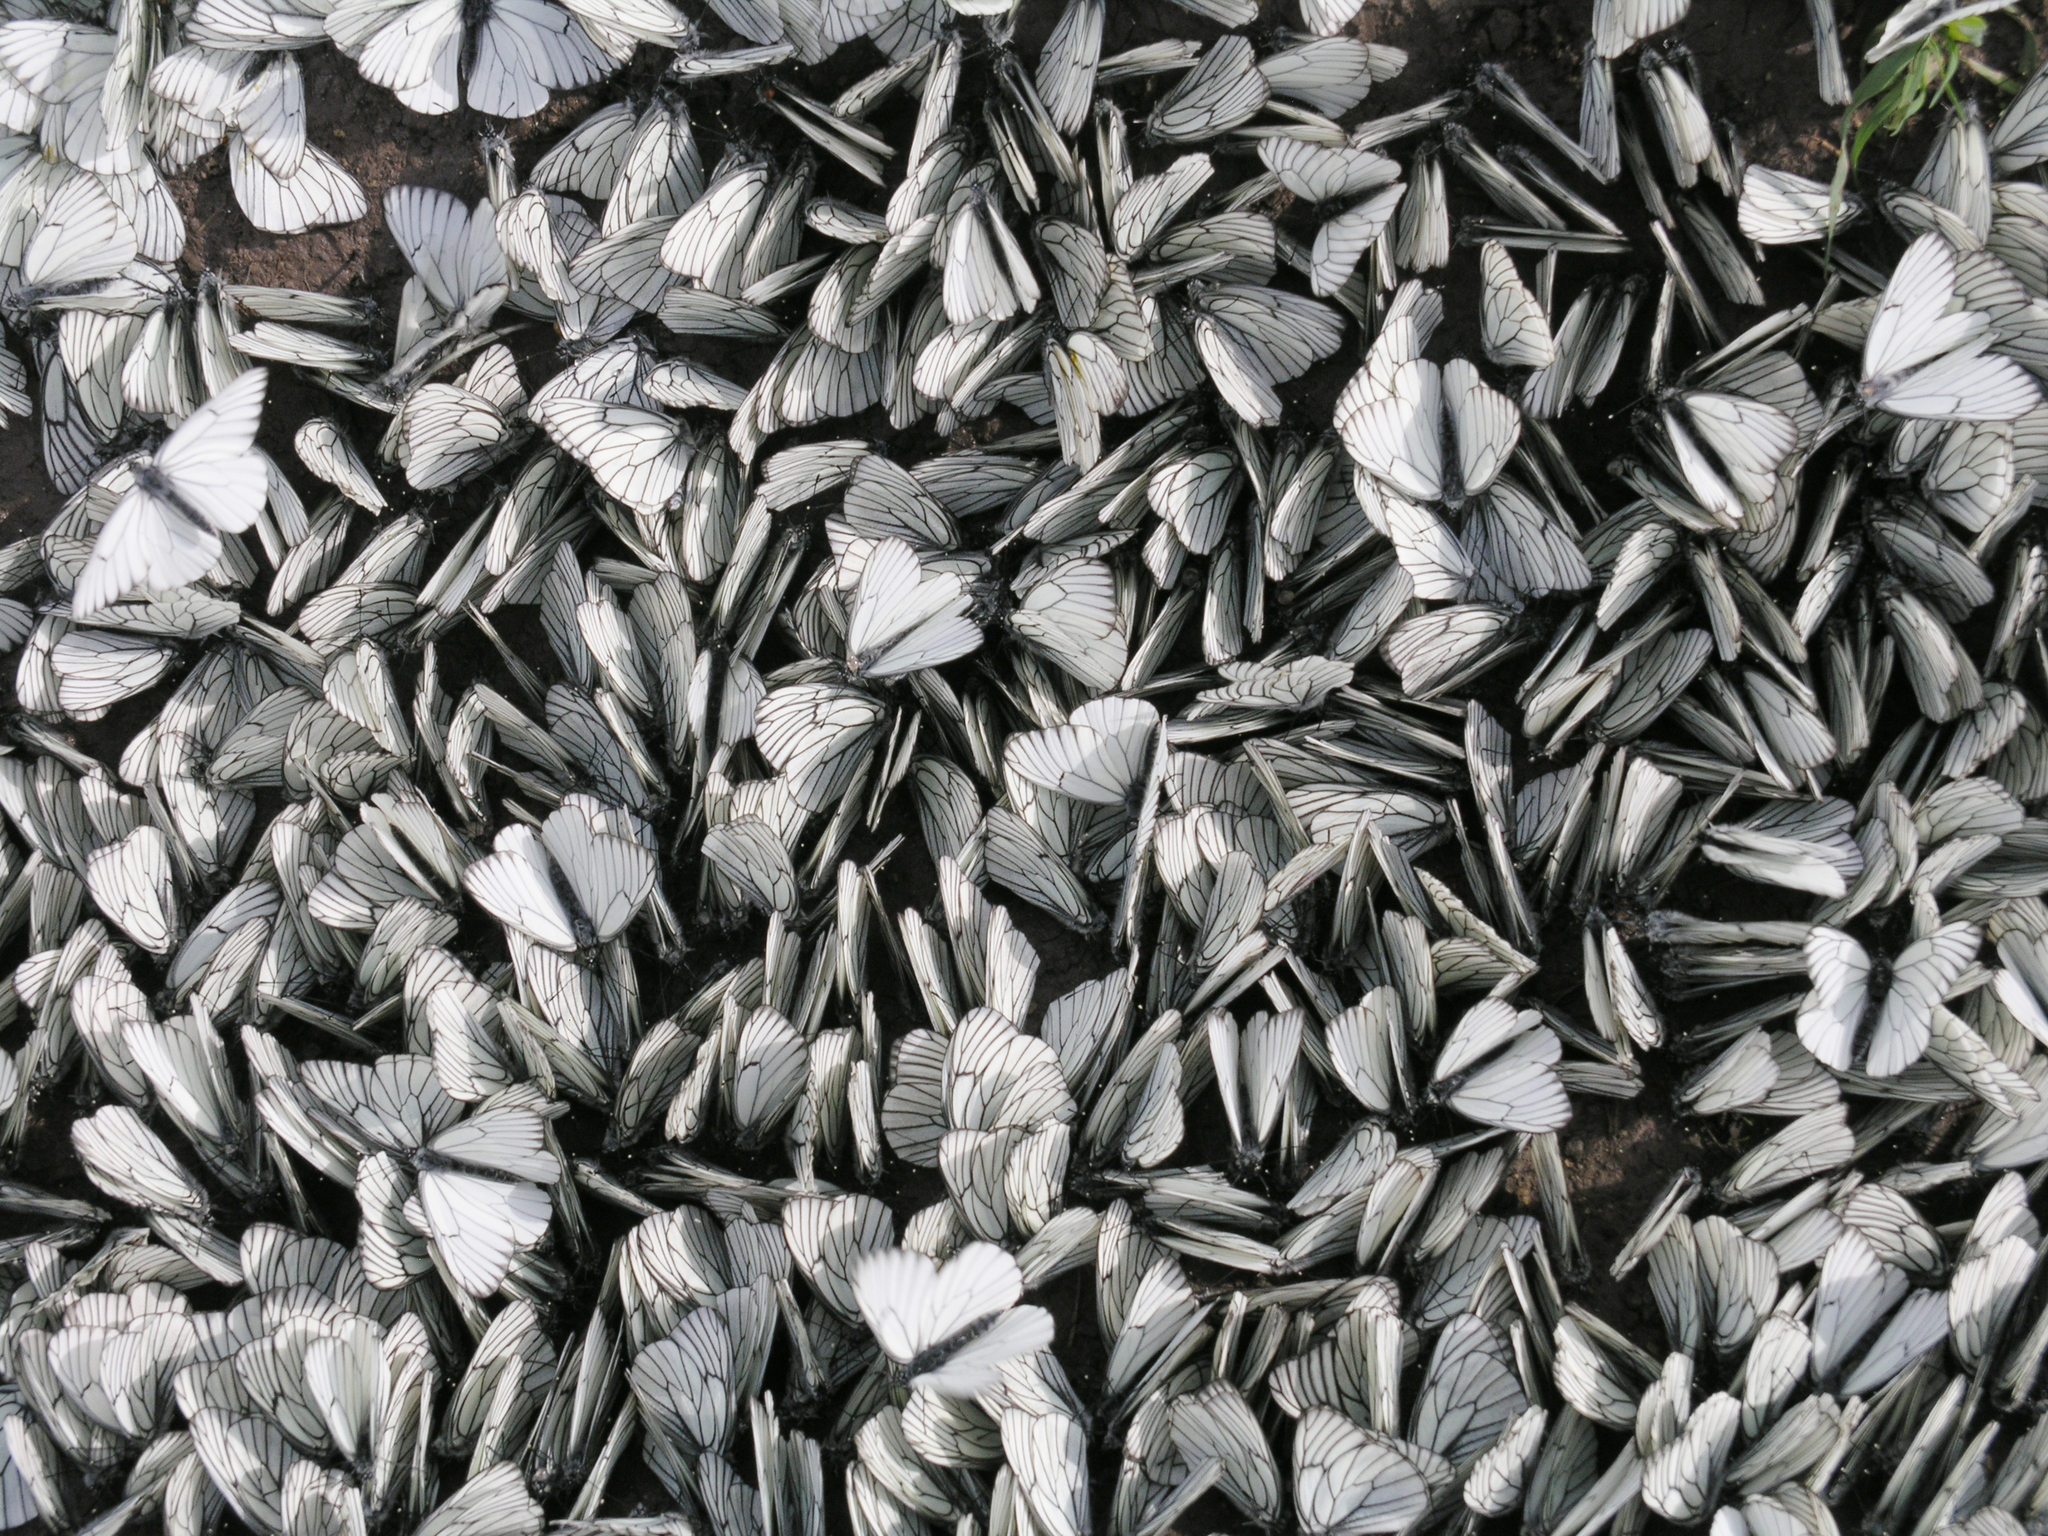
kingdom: Animalia
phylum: Arthropoda
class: Insecta
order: Lepidoptera
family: Pieridae
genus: Aporia
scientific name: Aporia crataegi
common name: Black-veined white
